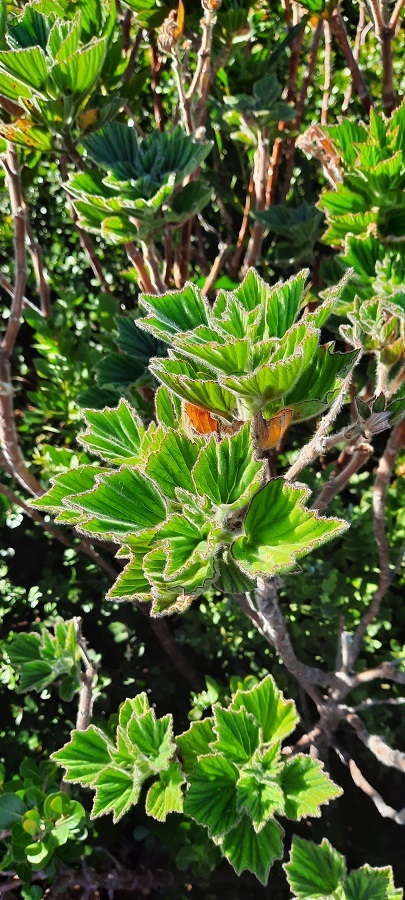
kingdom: Plantae
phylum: Tracheophyta
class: Magnoliopsida
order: Geraniales
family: Geraniaceae
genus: Pelargonium
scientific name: Pelargonium cucullatum
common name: Tree pelargonium
